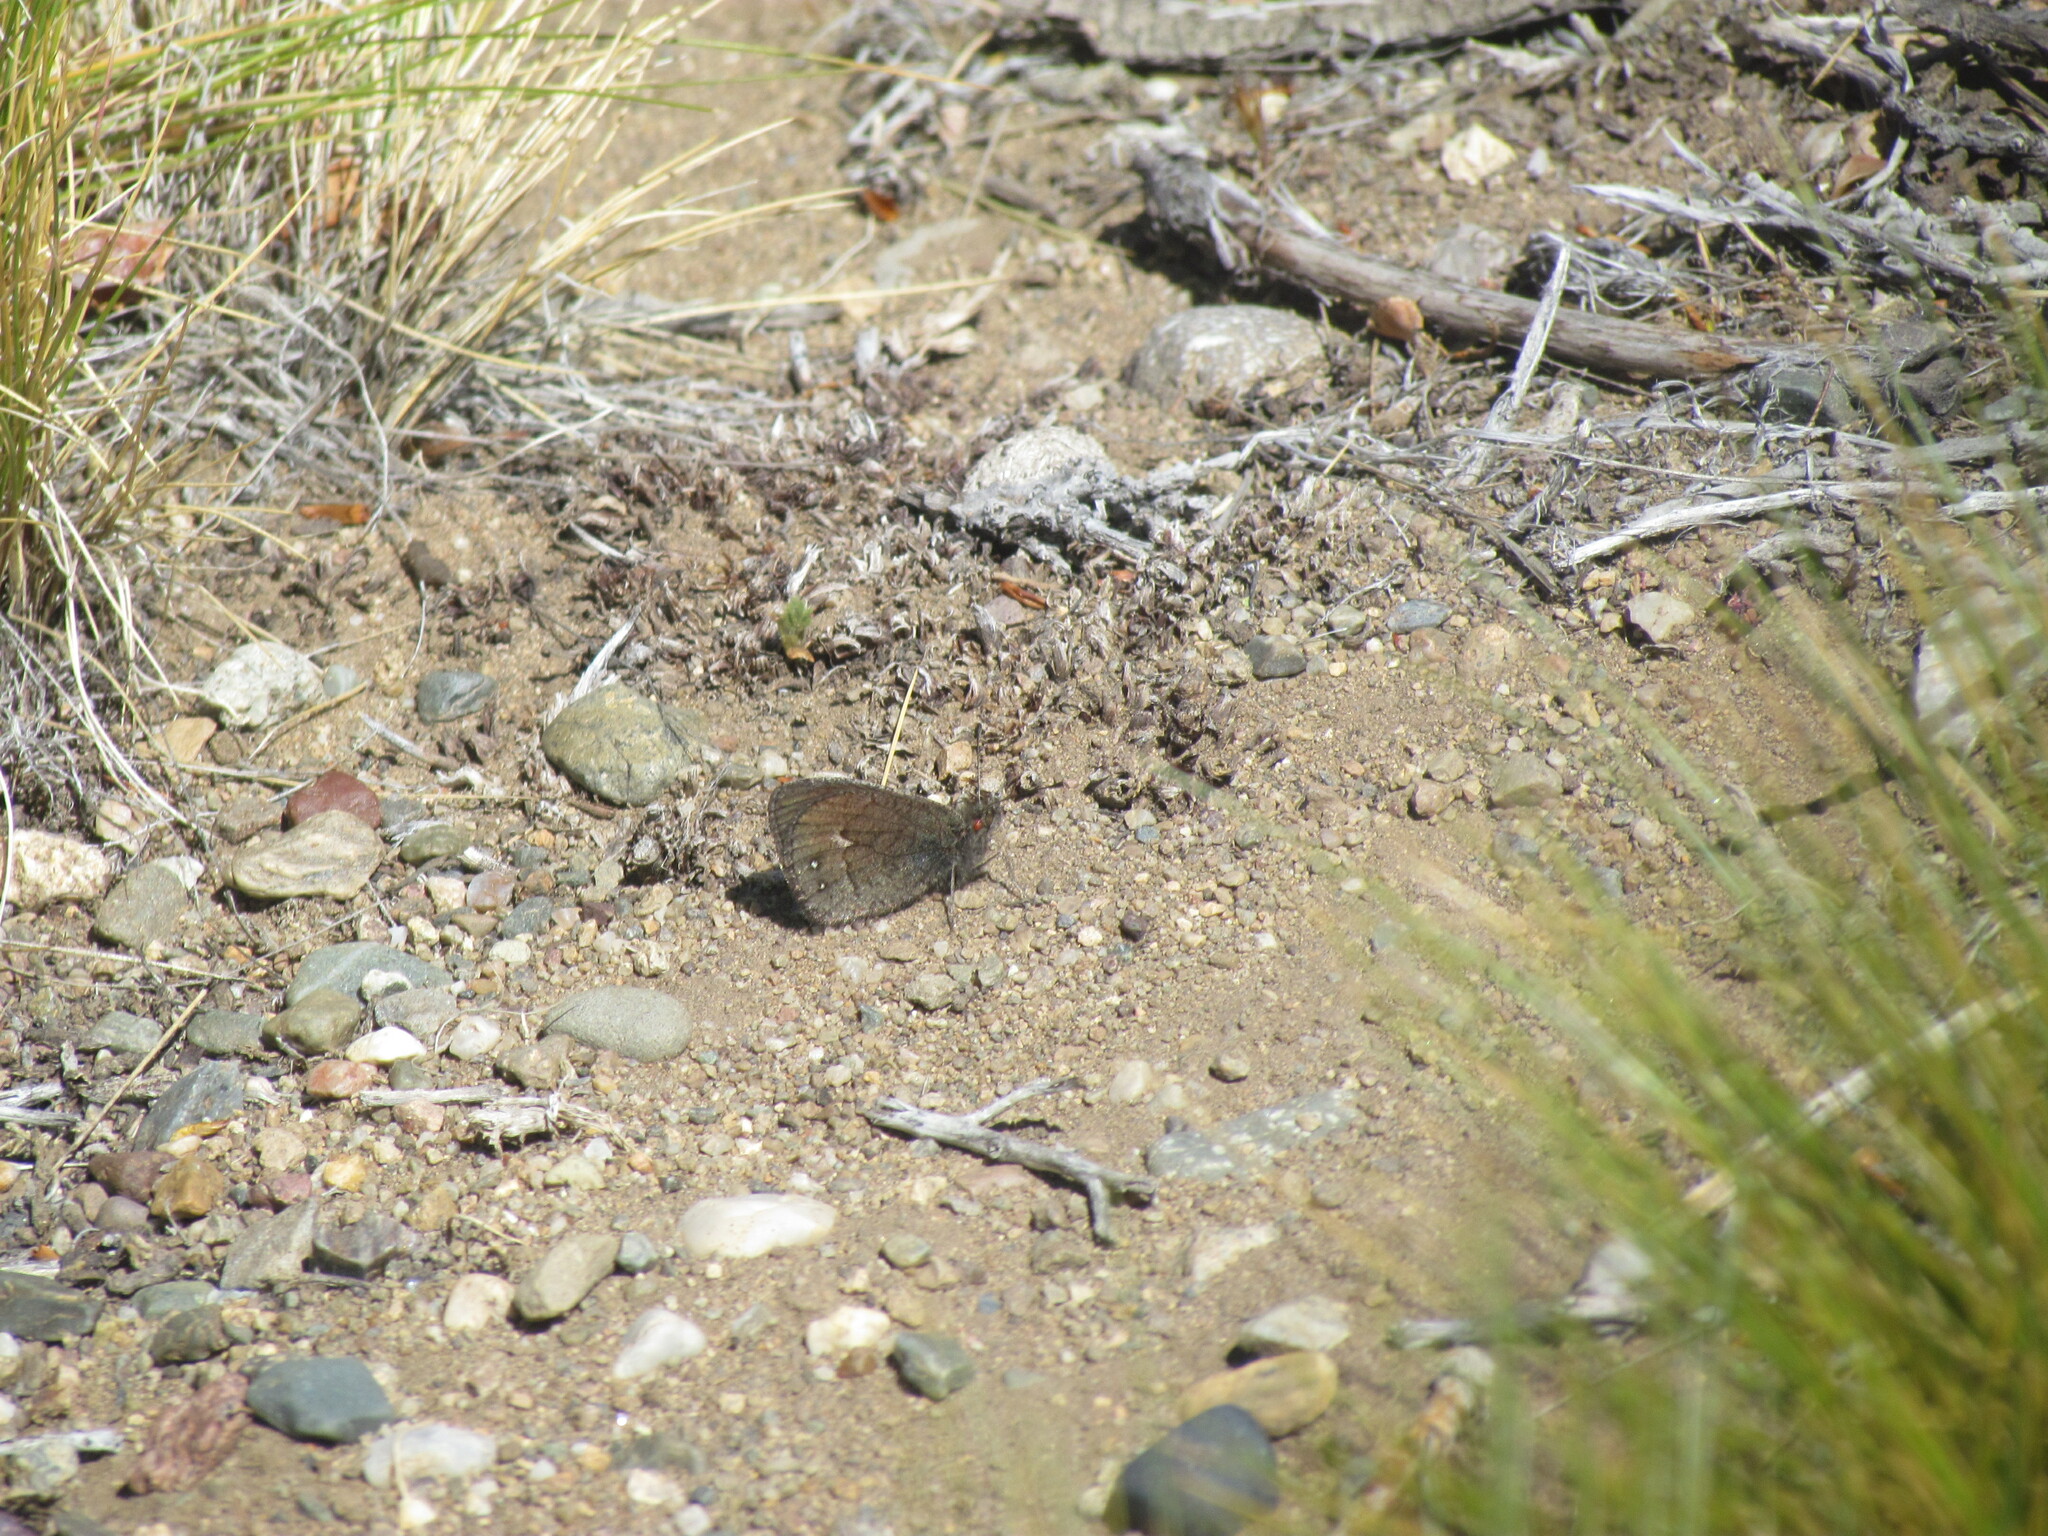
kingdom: Animalia
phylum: Arthropoda
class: Insecta
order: Lepidoptera
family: Nymphalidae
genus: Faunula
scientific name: Faunula patagonica
